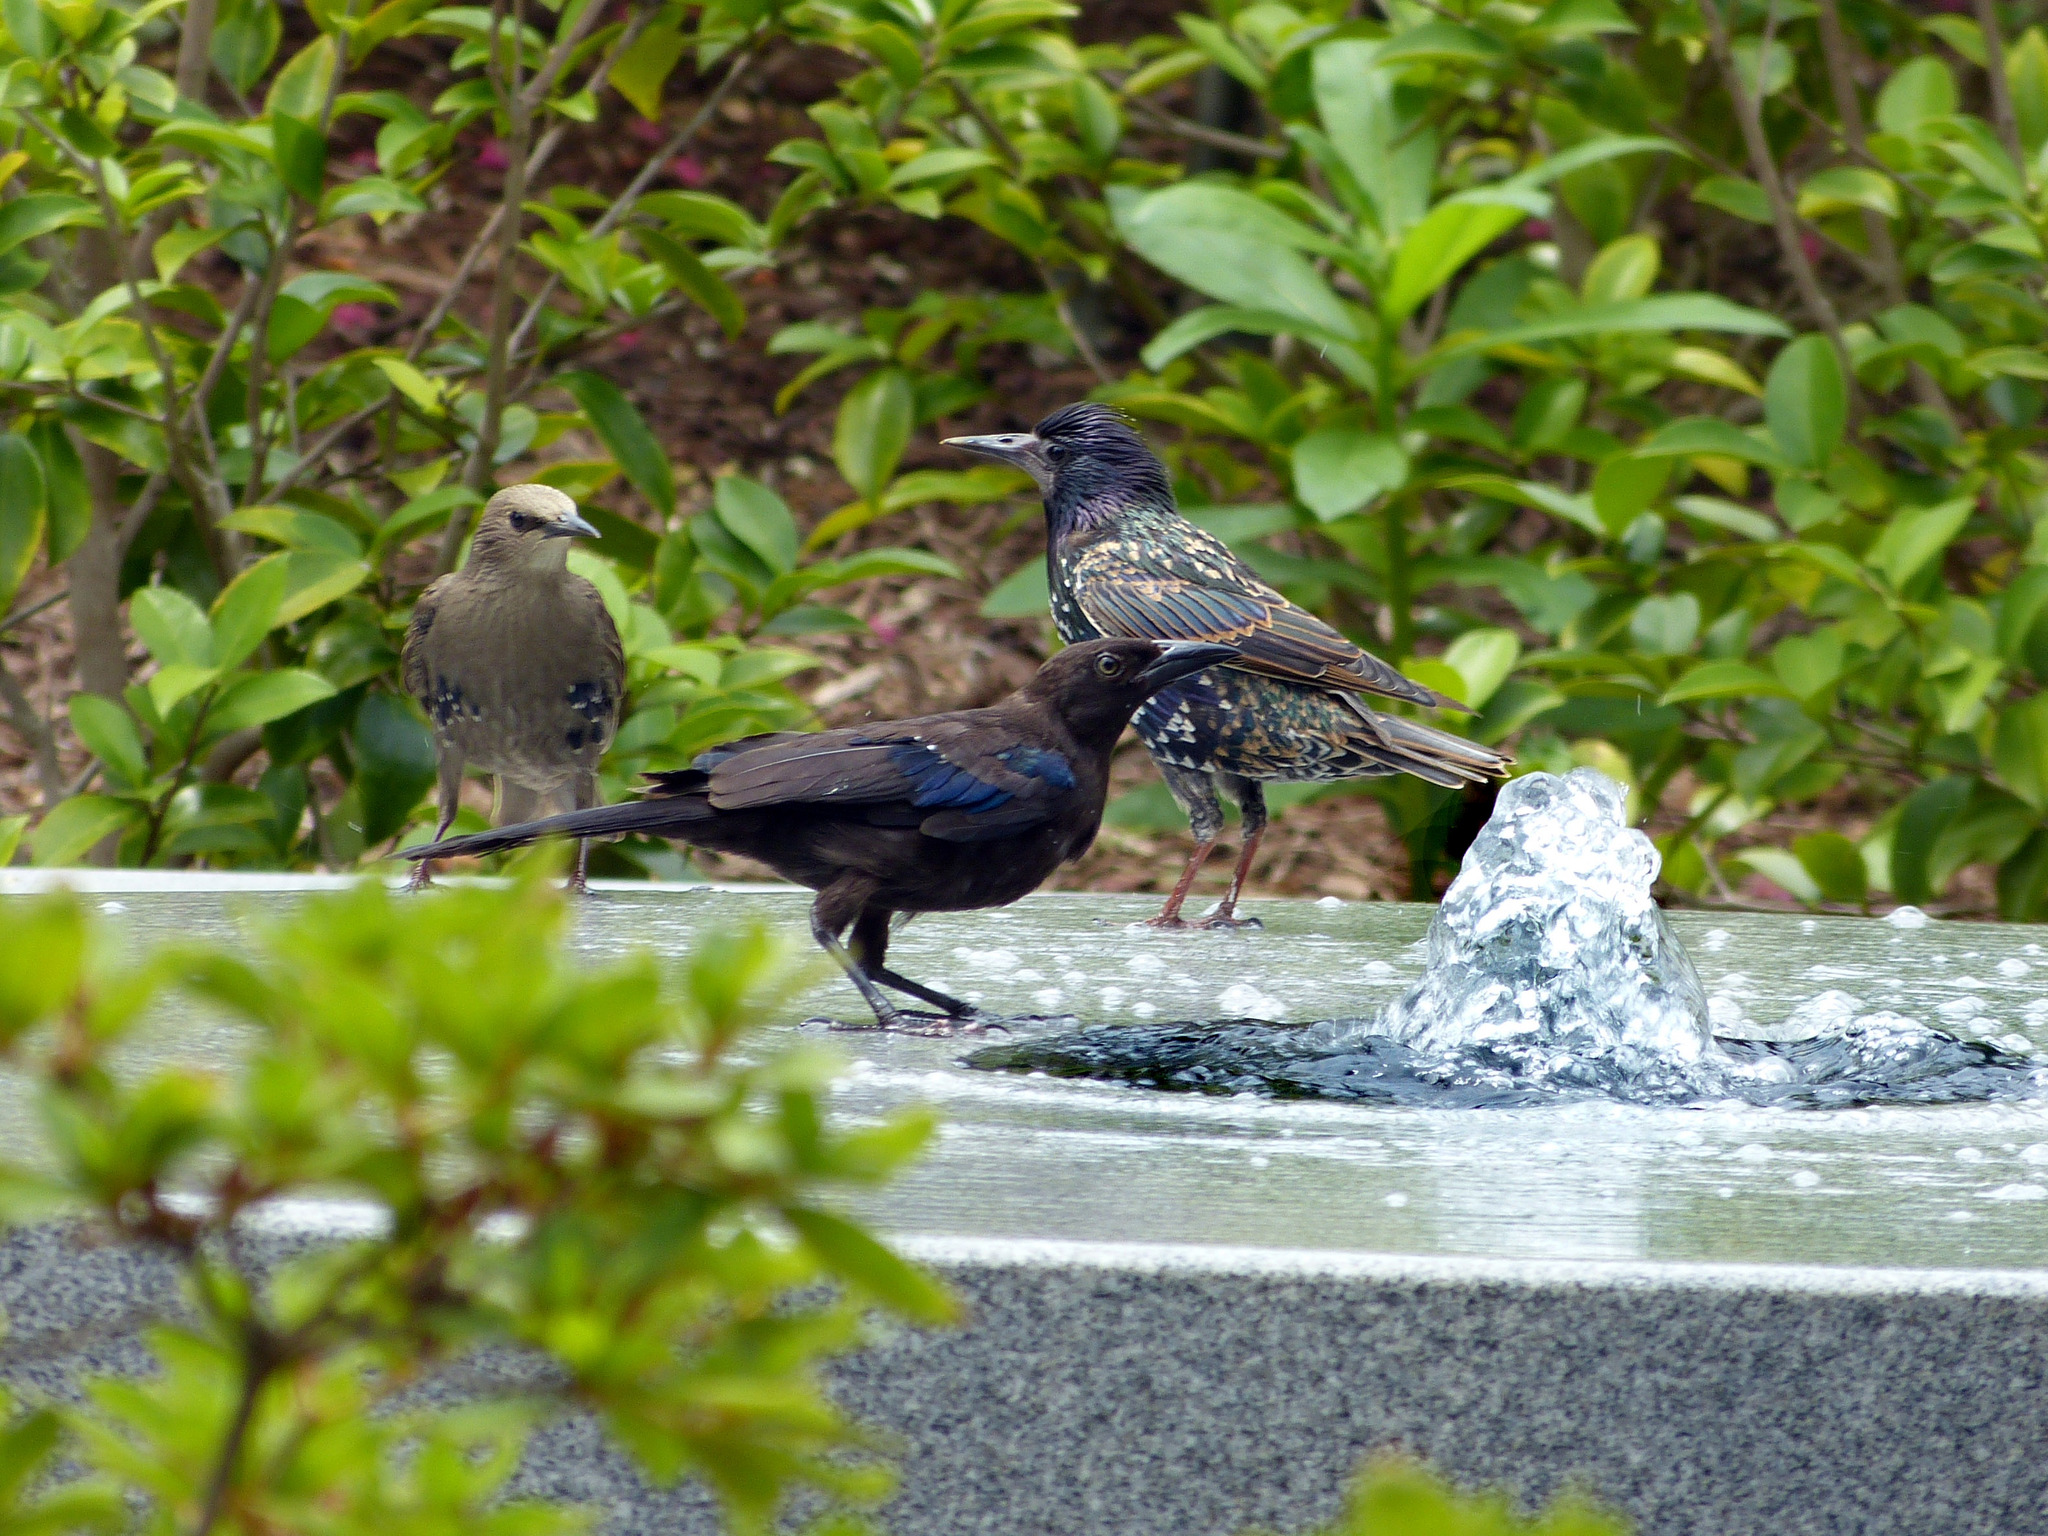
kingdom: Animalia
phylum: Chordata
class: Aves
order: Passeriformes
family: Sturnidae
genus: Sturnus
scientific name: Sturnus vulgaris
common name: Common starling
